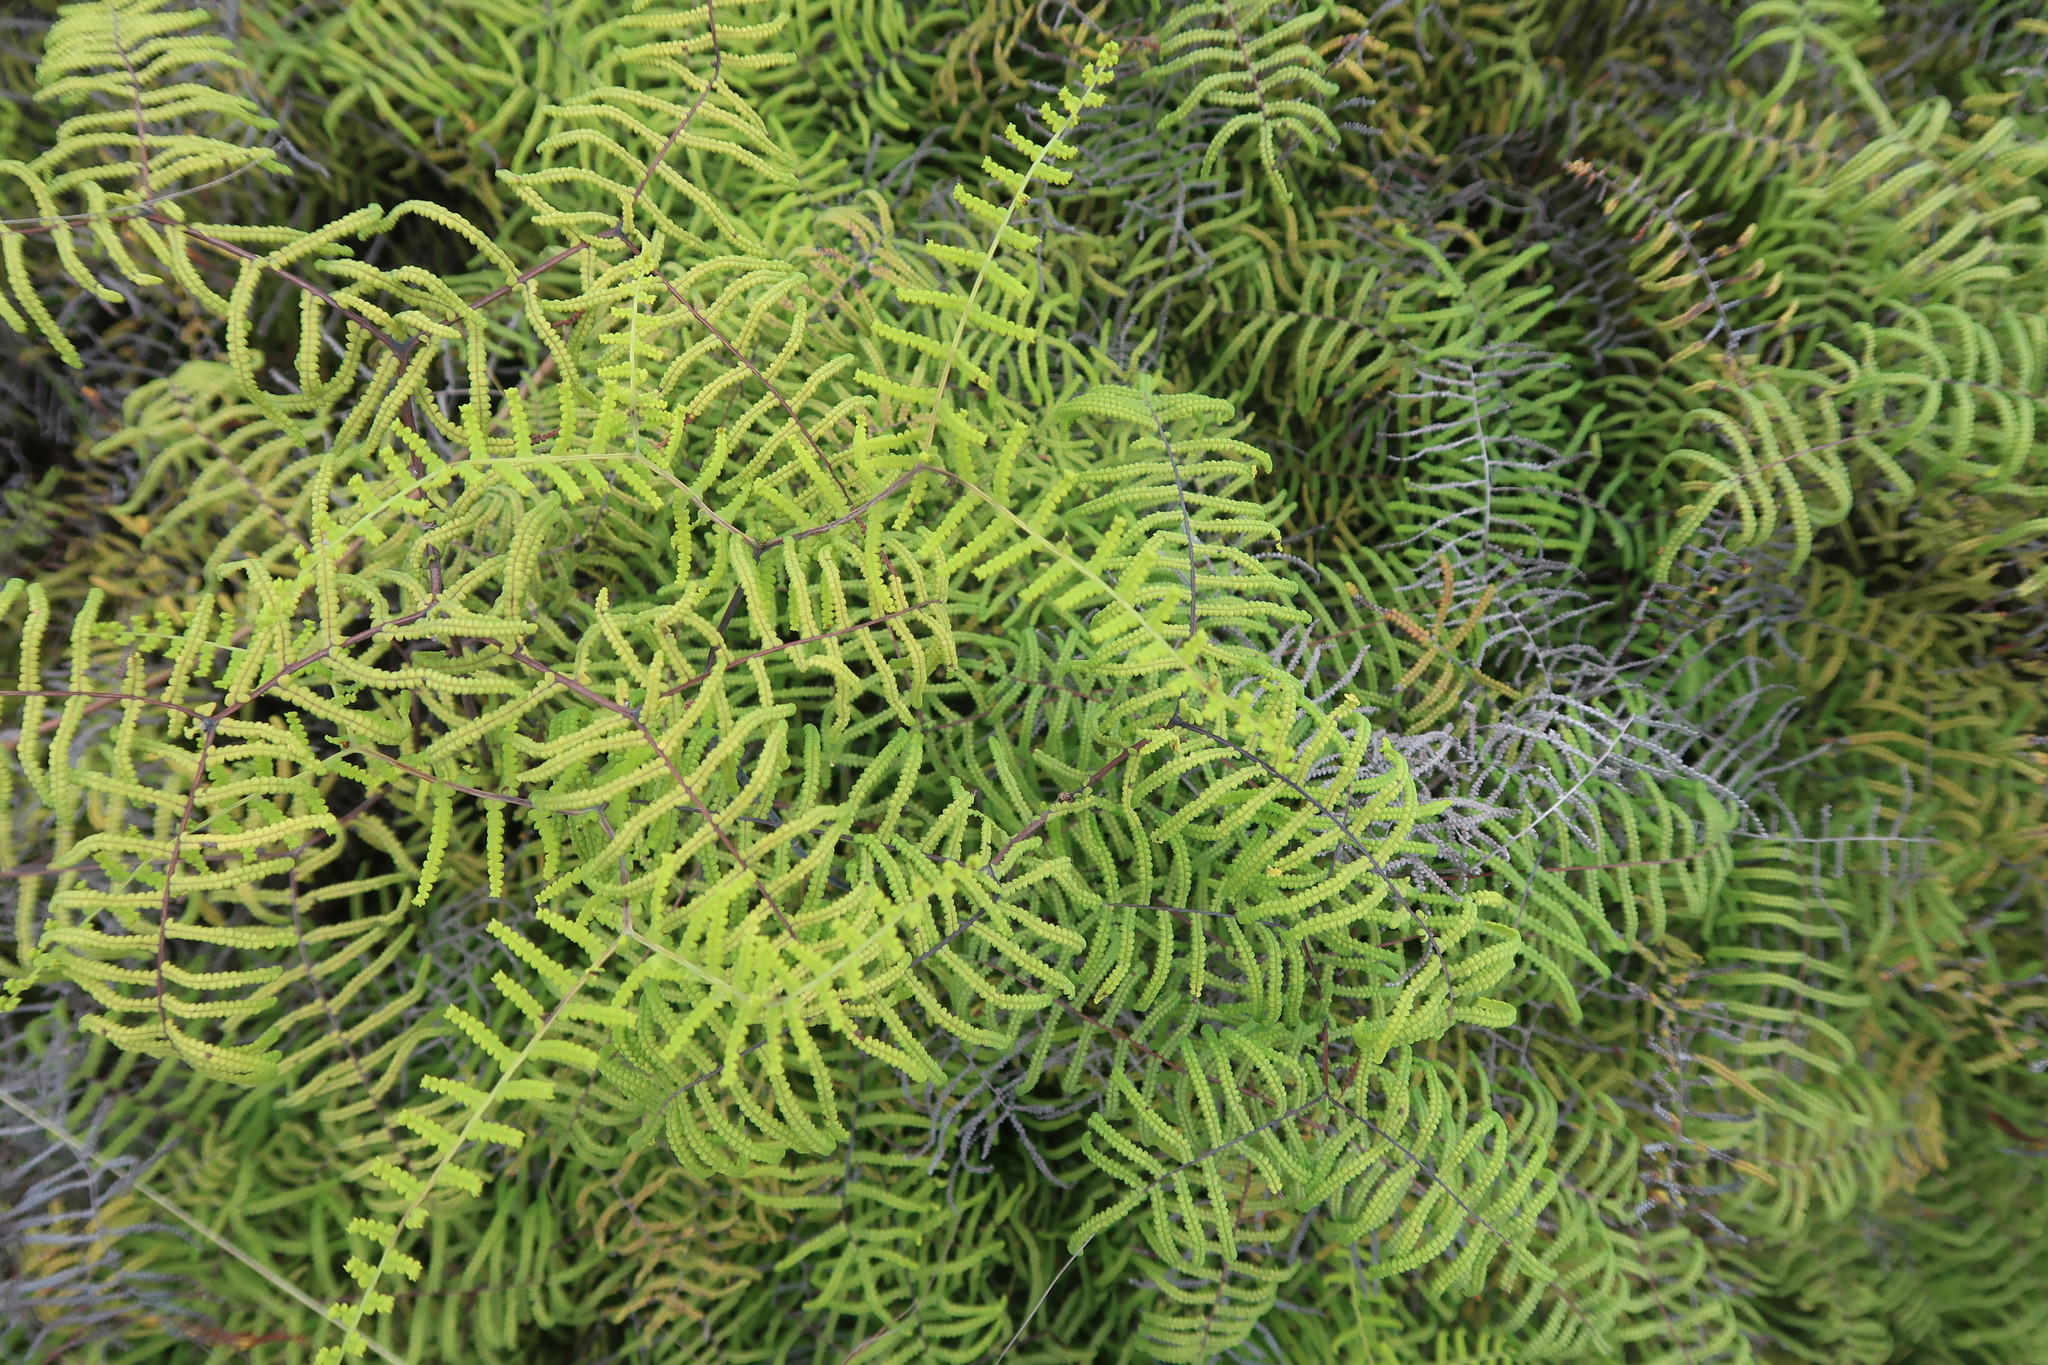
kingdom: Plantae
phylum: Tracheophyta
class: Polypodiopsida
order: Gleicheniales
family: Gleicheniaceae
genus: Gleichenia
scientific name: Gleichenia polypodioides
